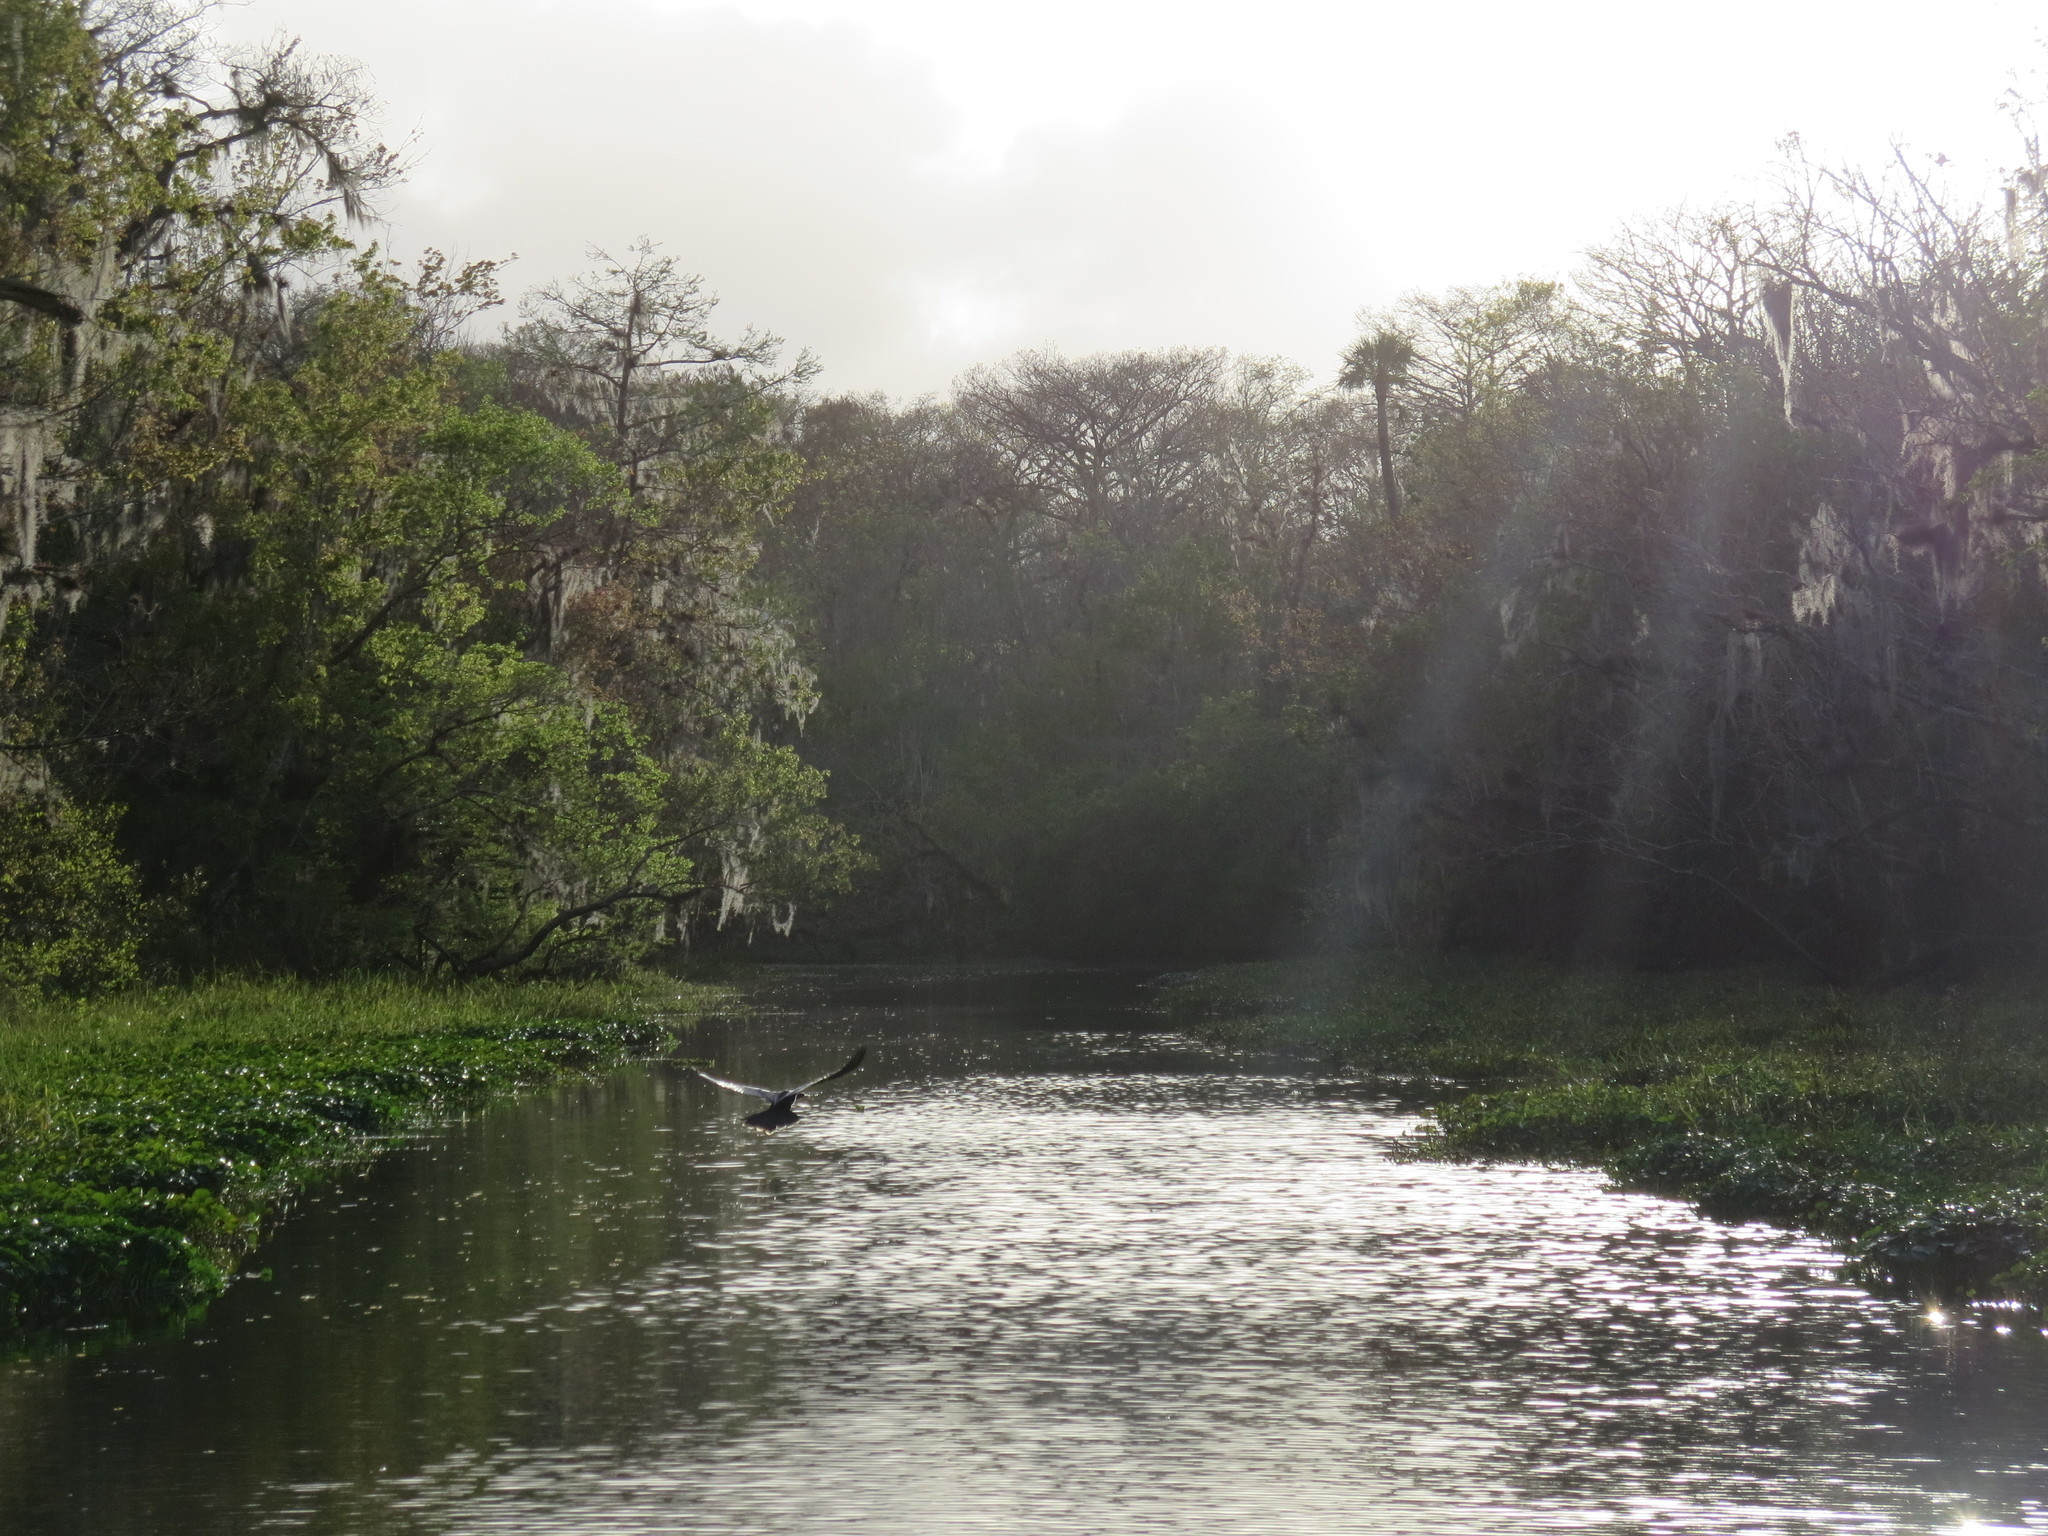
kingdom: Animalia
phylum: Chordata
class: Aves
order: Suliformes
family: Anhingidae
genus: Anhinga
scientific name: Anhinga anhinga
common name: Anhinga
